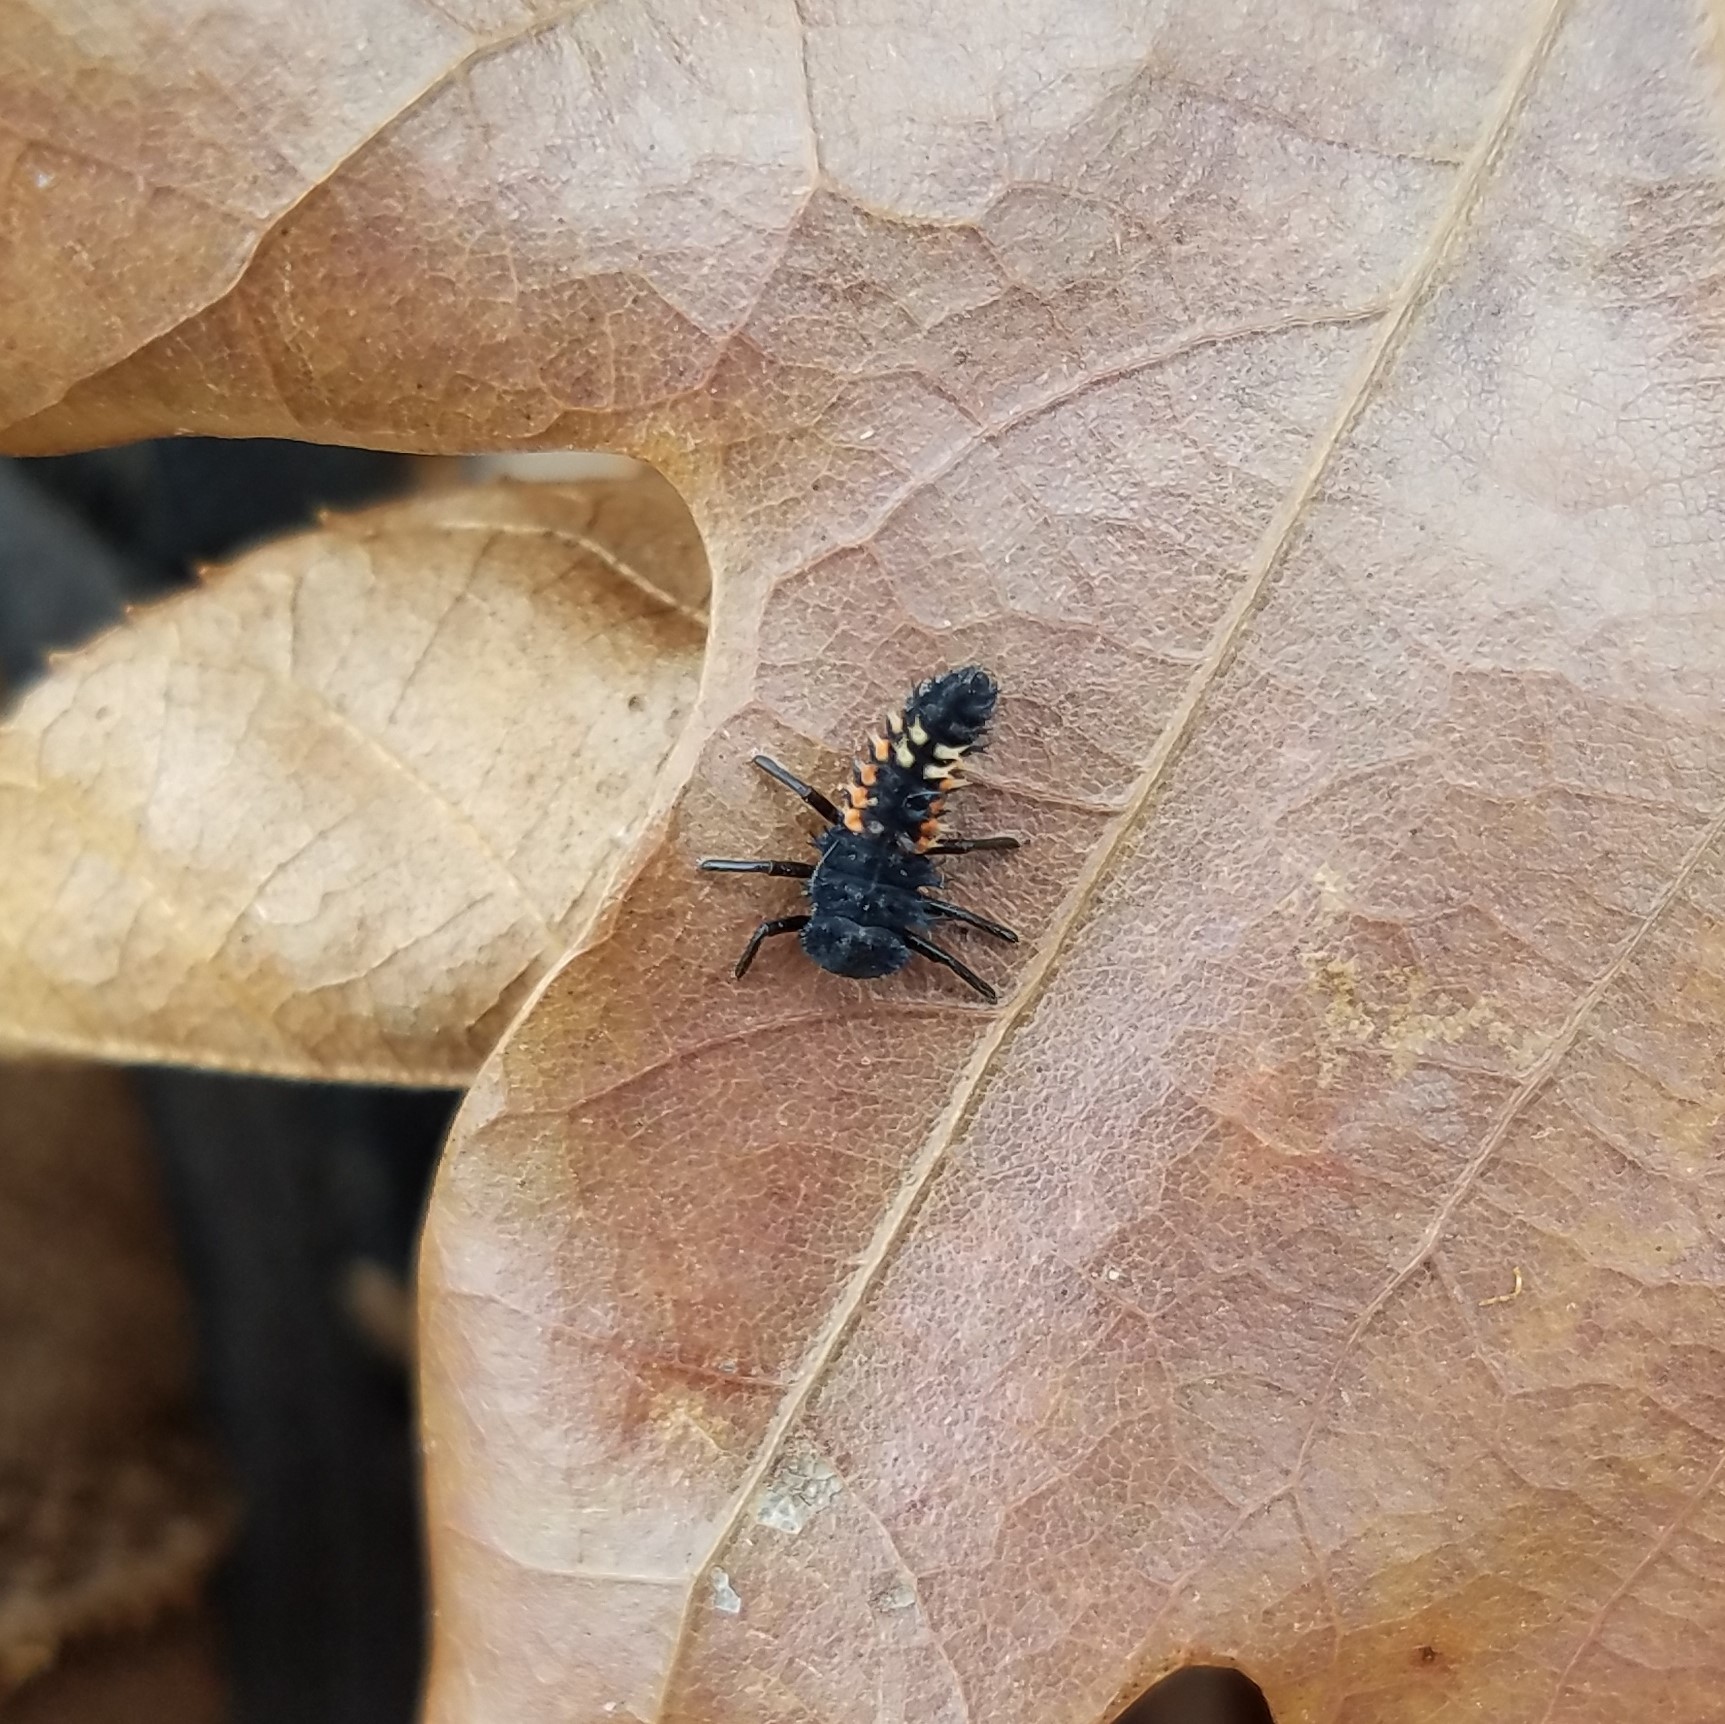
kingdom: Animalia
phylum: Arthropoda
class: Insecta
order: Coleoptera
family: Coccinellidae
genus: Harmonia
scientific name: Harmonia axyridis
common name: Harlequin ladybird
